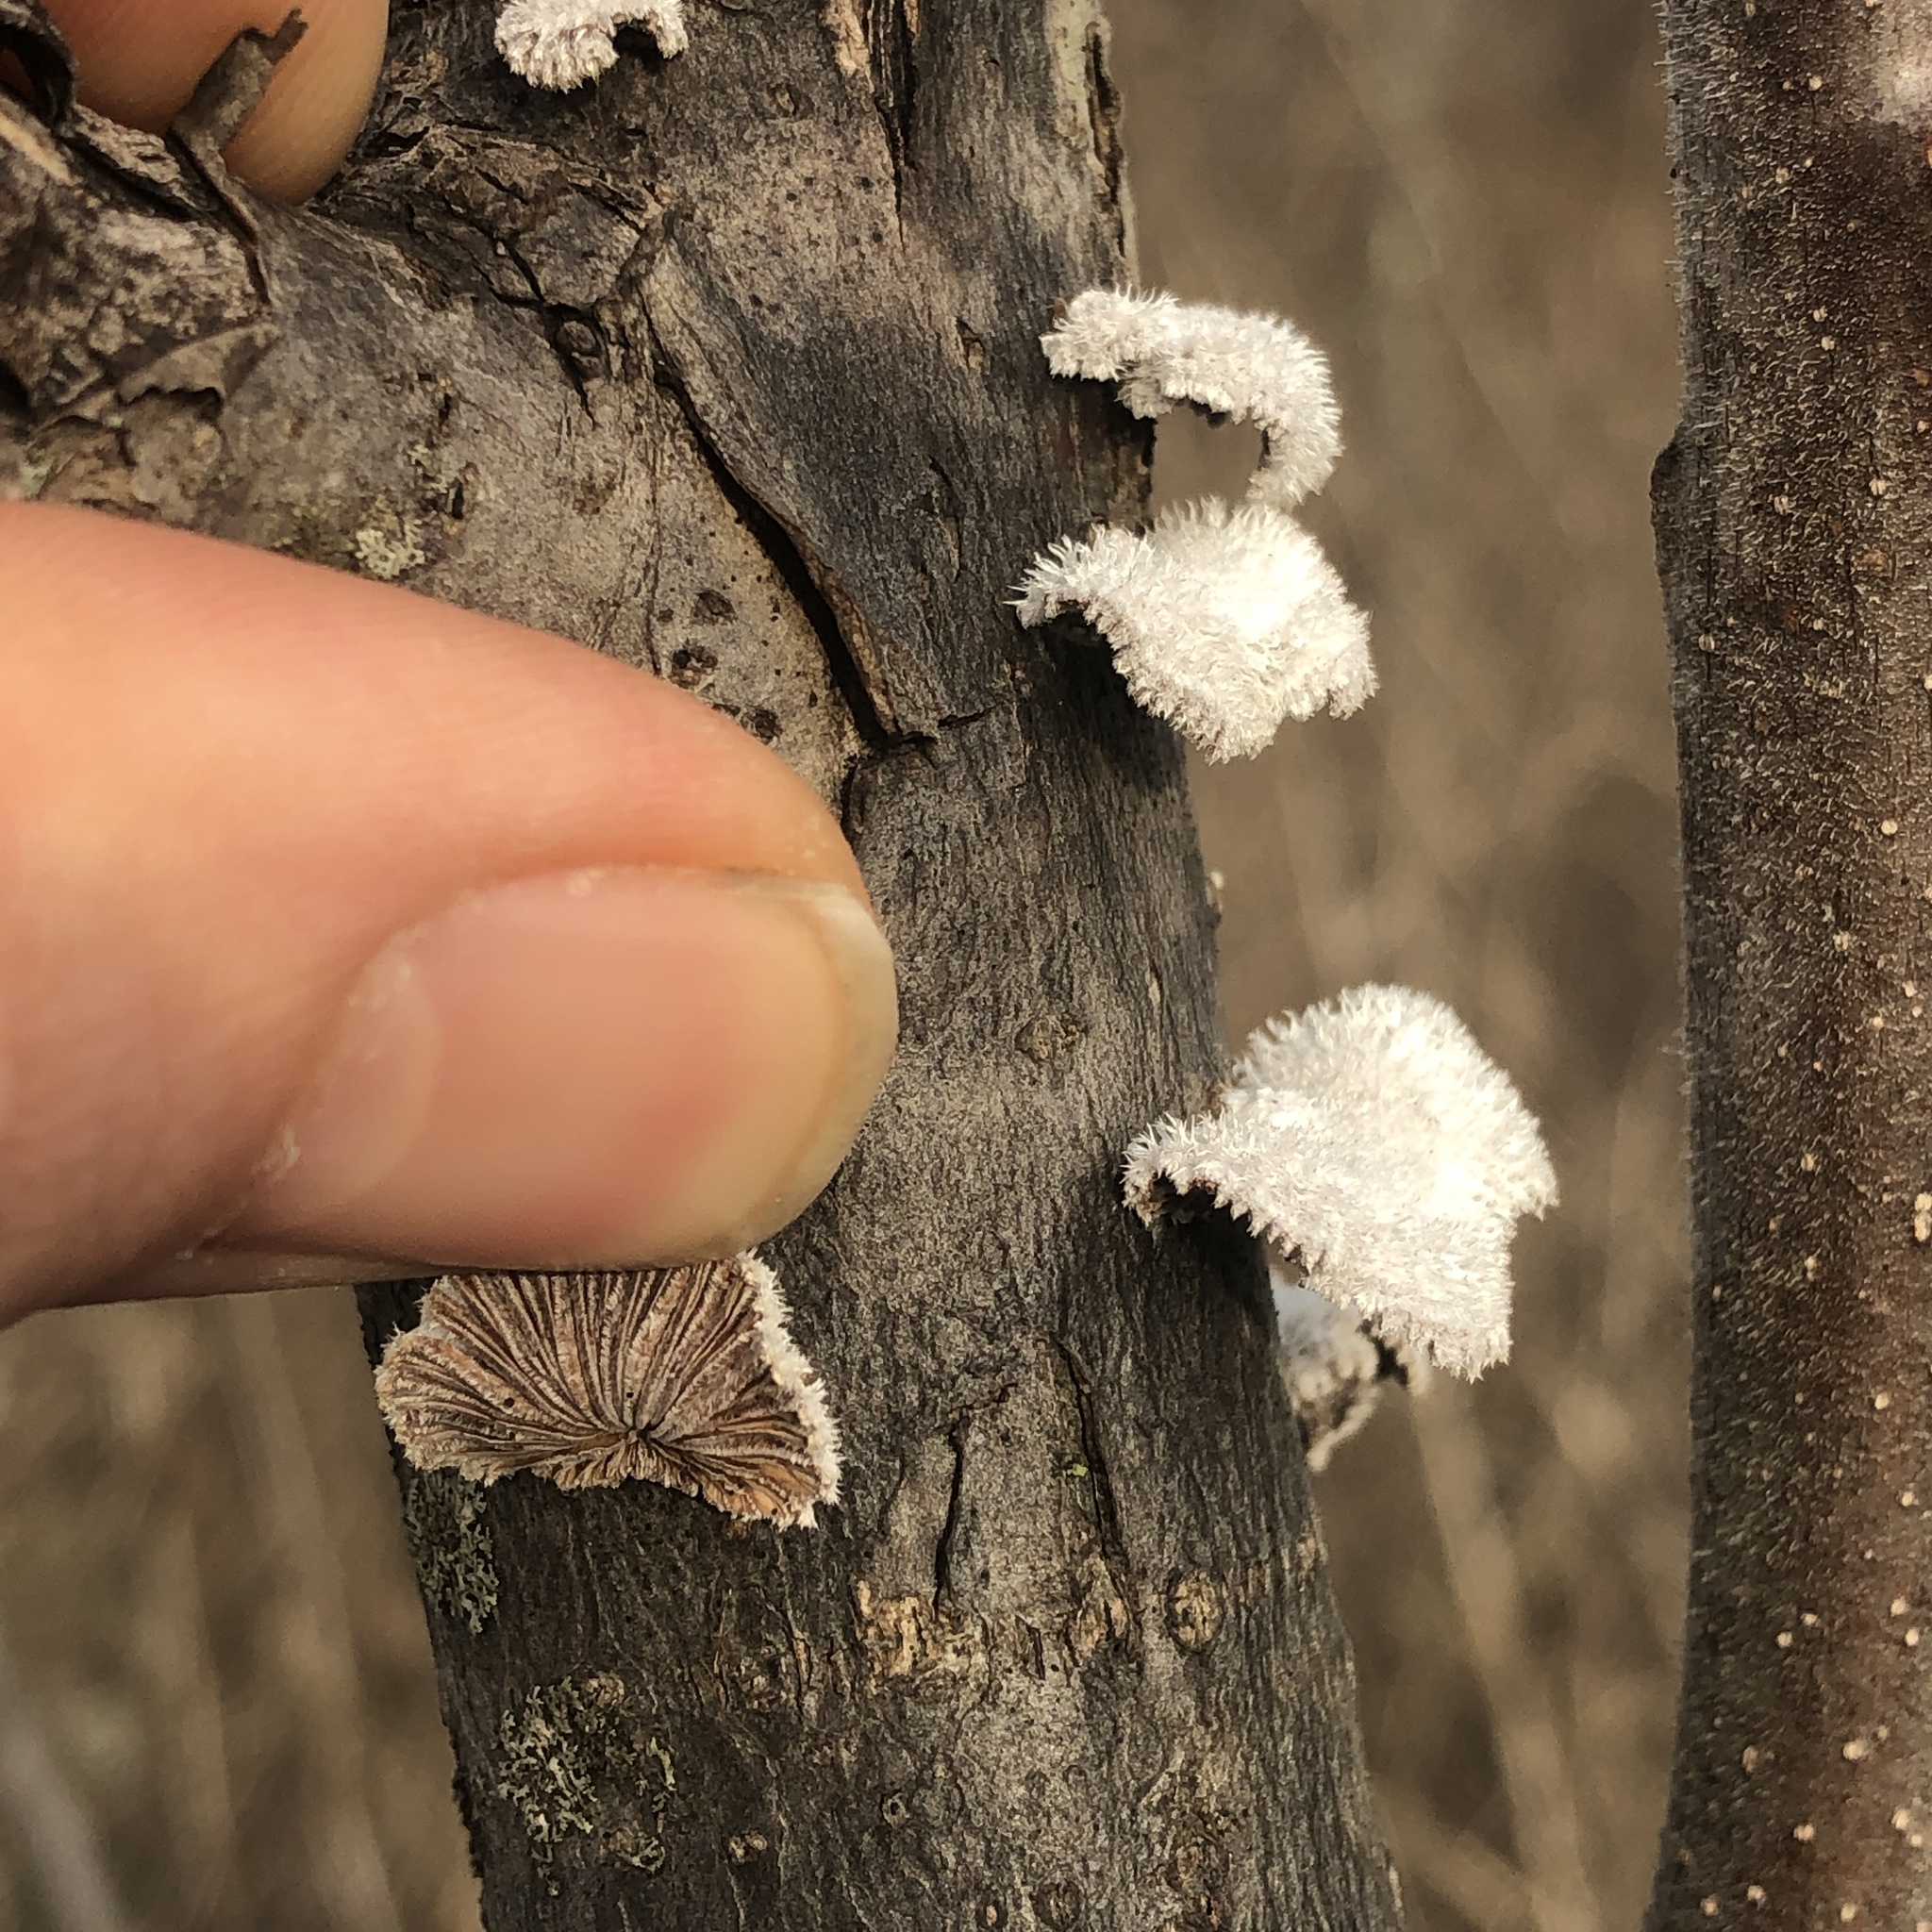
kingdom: Fungi
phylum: Basidiomycota
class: Agaricomycetes
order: Agaricales
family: Schizophyllaceae
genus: Schizophyllum
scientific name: Schizophyllum commune
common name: Common porecrust
